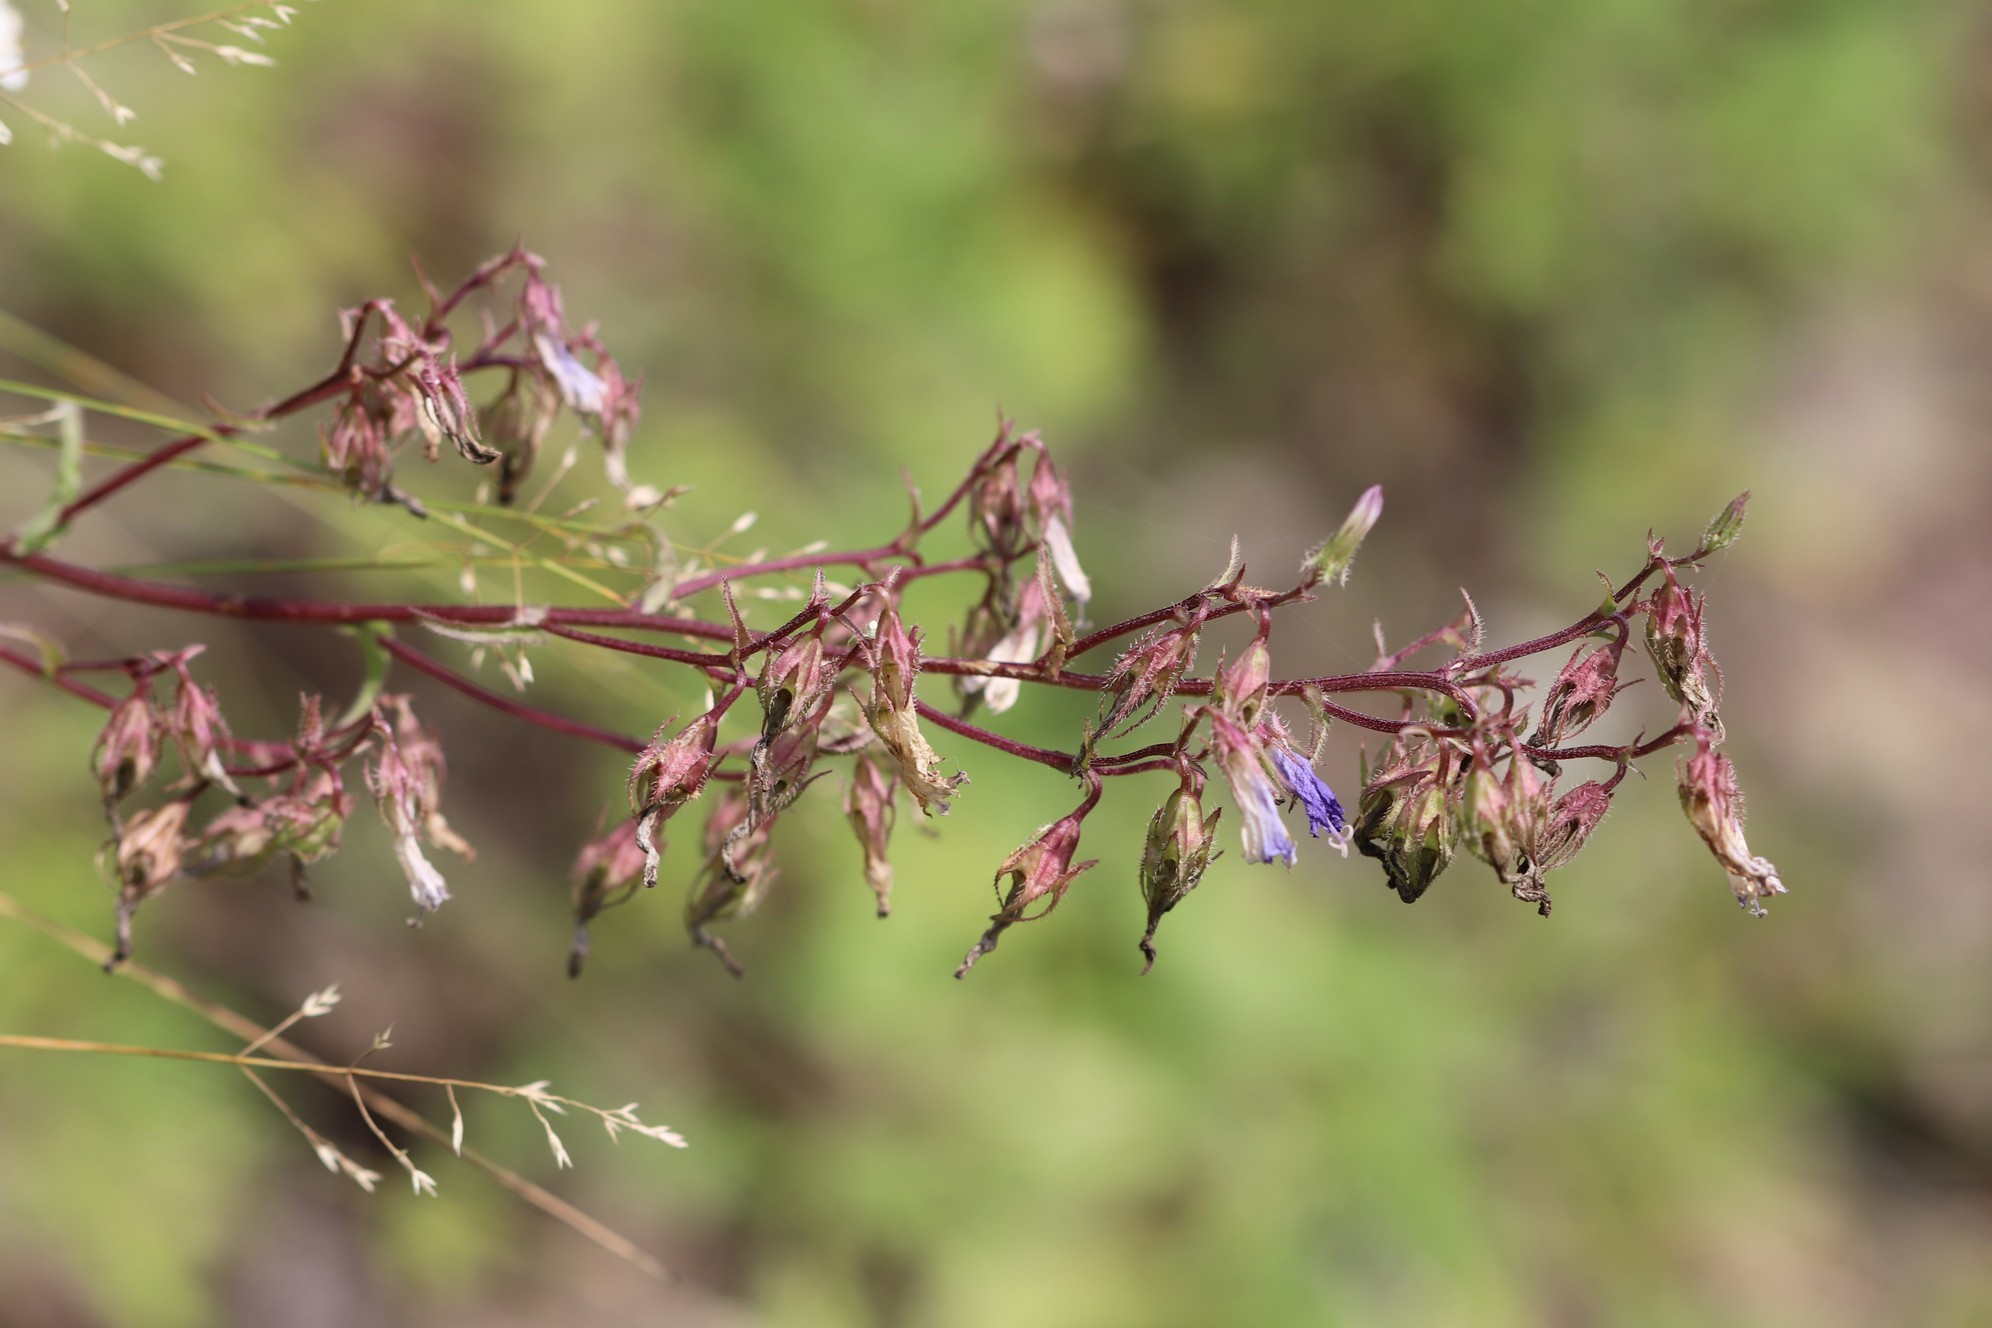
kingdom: Plantae
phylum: Tracheophyta
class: Magnoliopsida
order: Asterales
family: Campanulaceae
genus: Campanula
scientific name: Campanula sibirica
